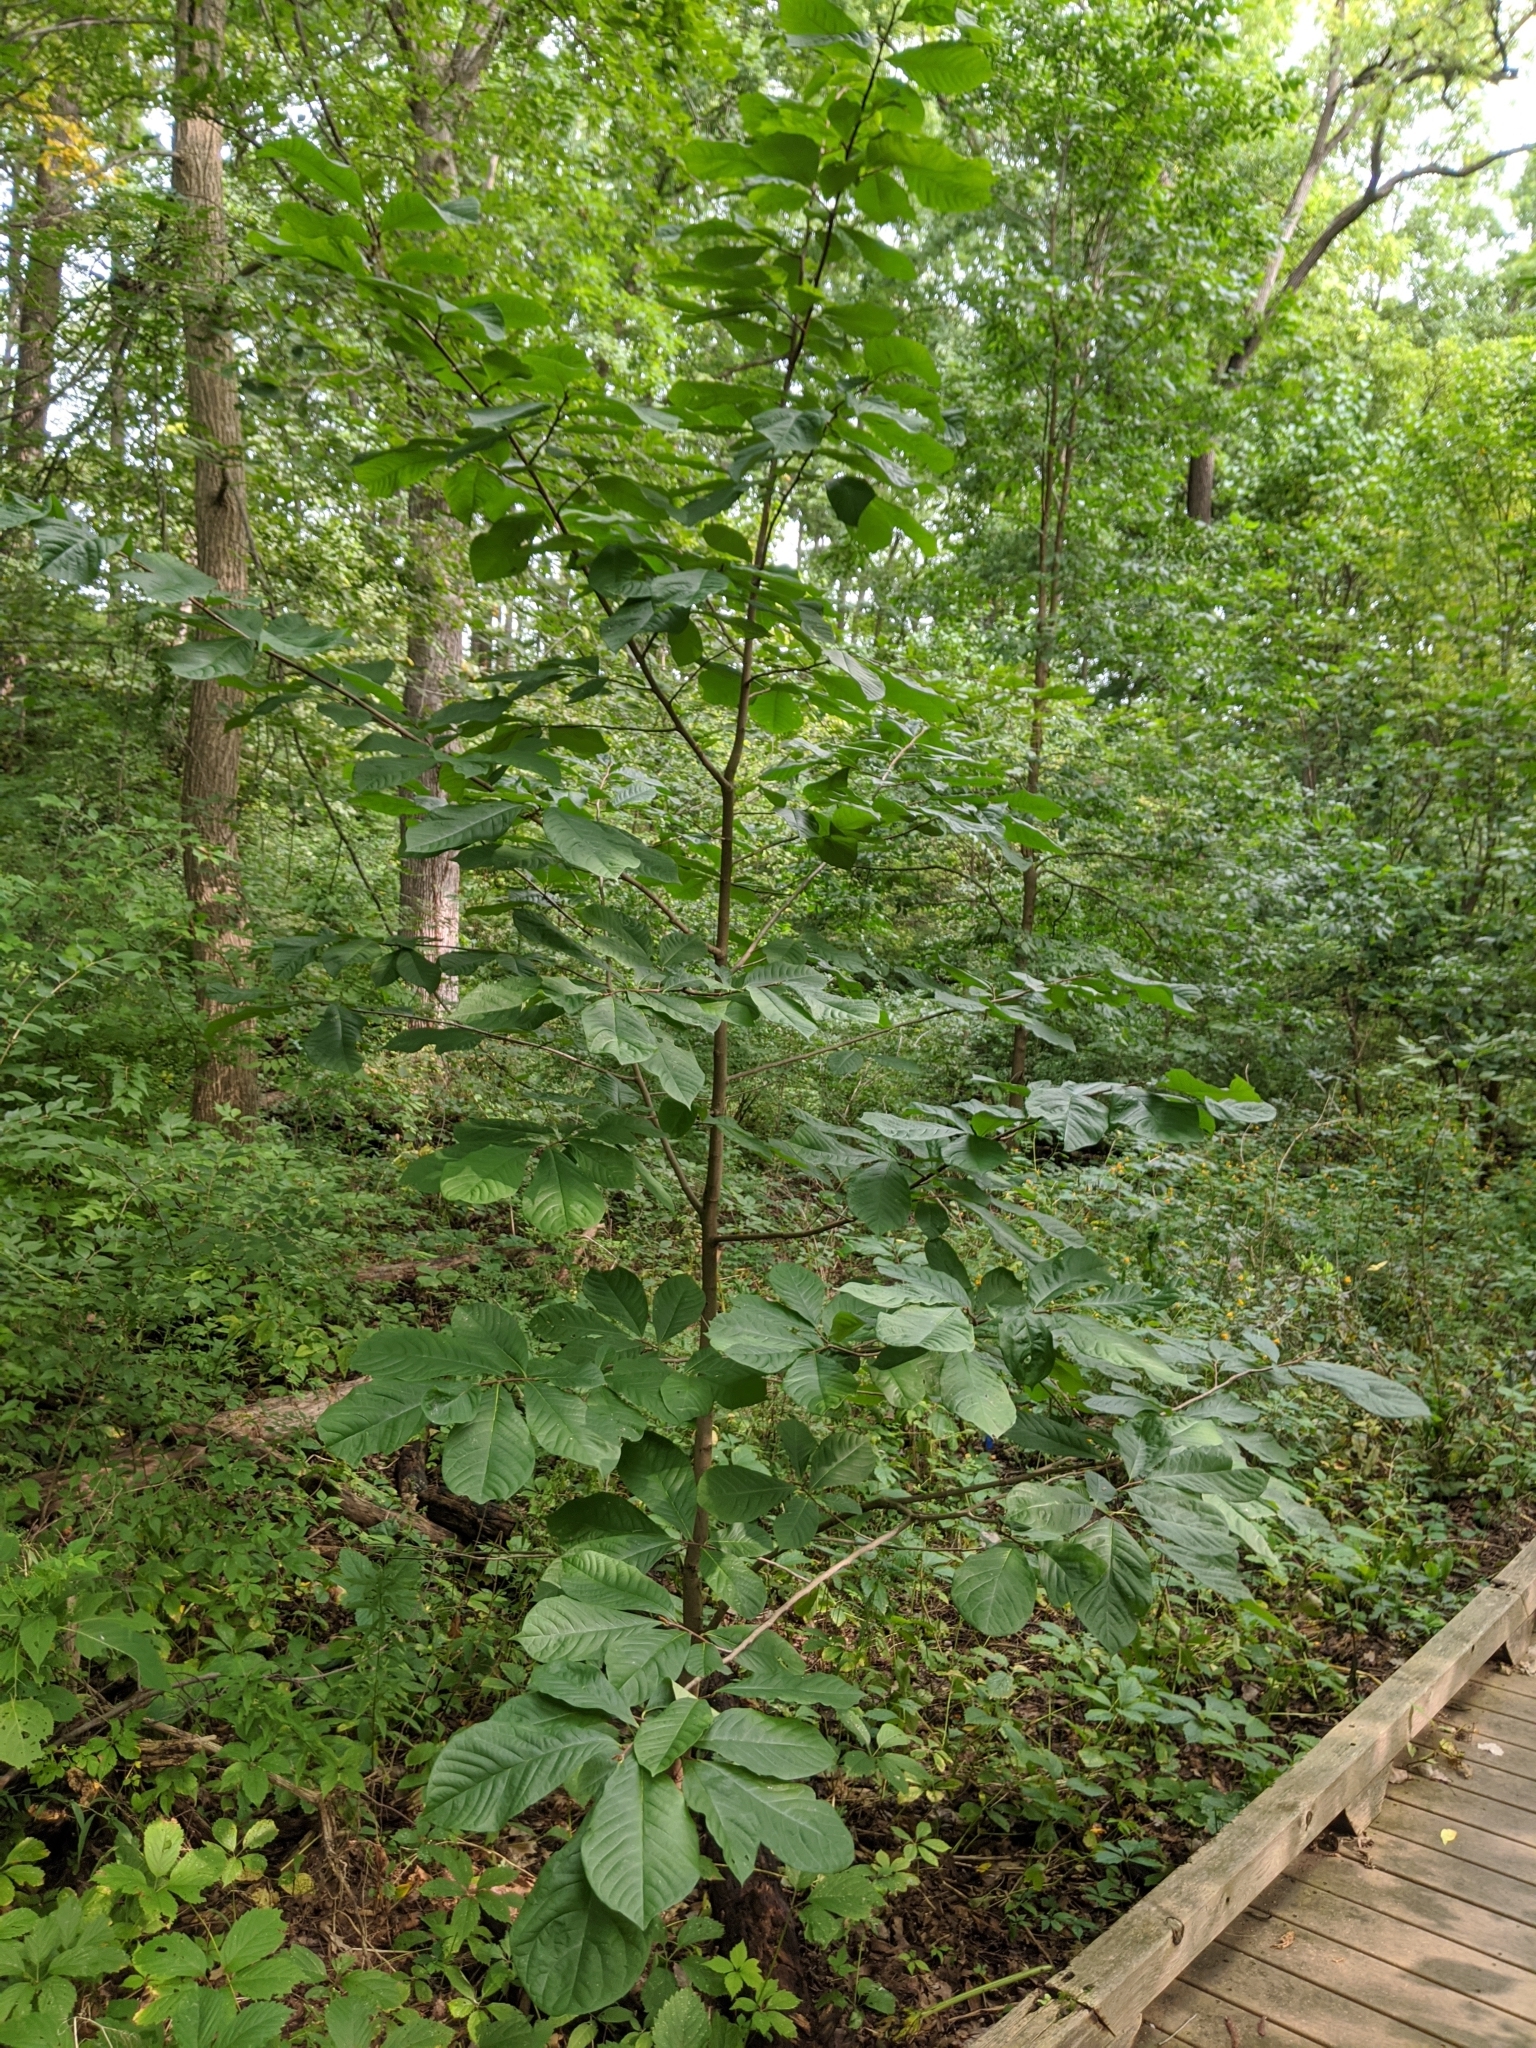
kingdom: Plantae
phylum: Tracheophyta
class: Magnoliopsida
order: Magnoliales
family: Annonaceae
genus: Asimina
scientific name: Asimina triloba
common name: Dog-banana
